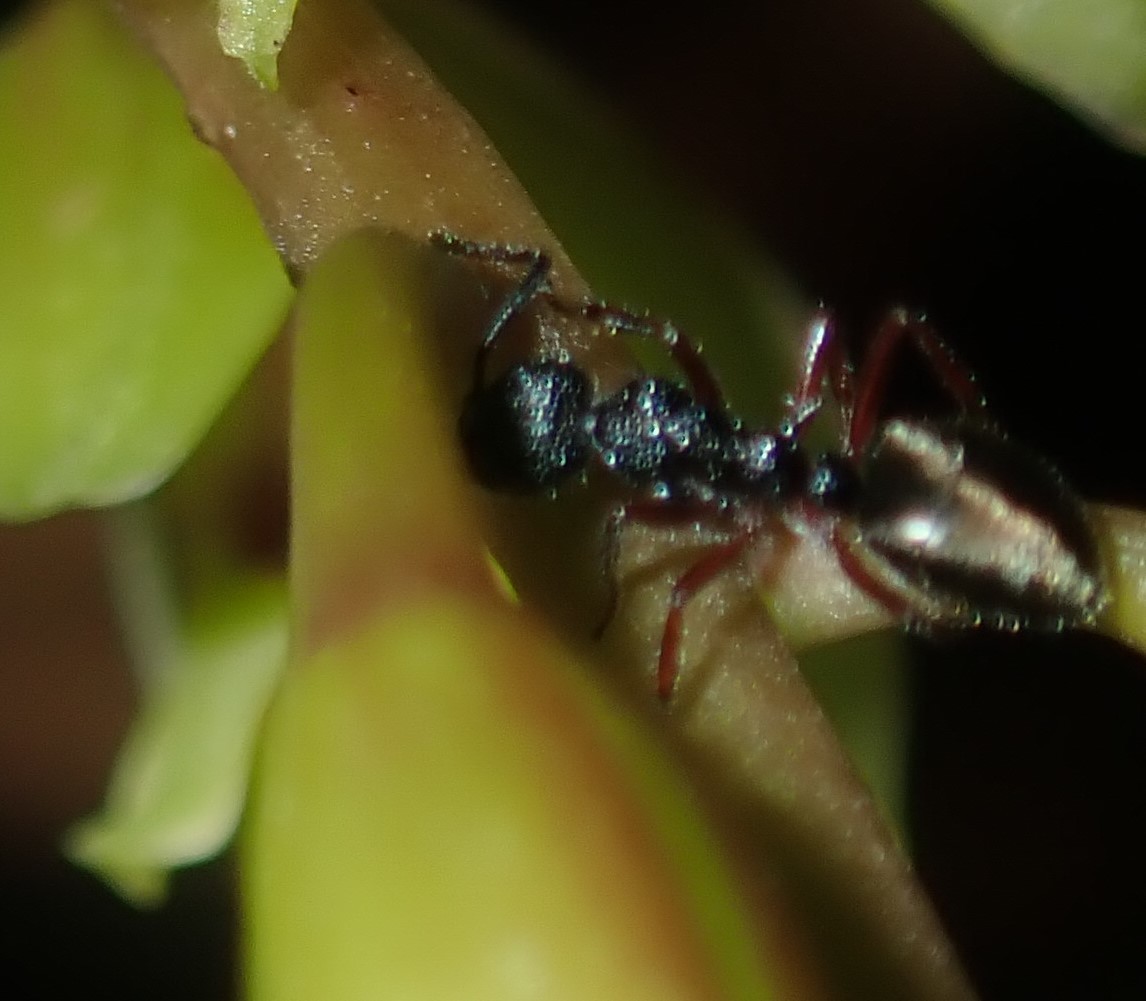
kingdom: Animalia
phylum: Arthropoda
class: Insecta
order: Hymenoptera
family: Formicidae
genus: Dolichoderus
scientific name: Dolichoderus scabridus
